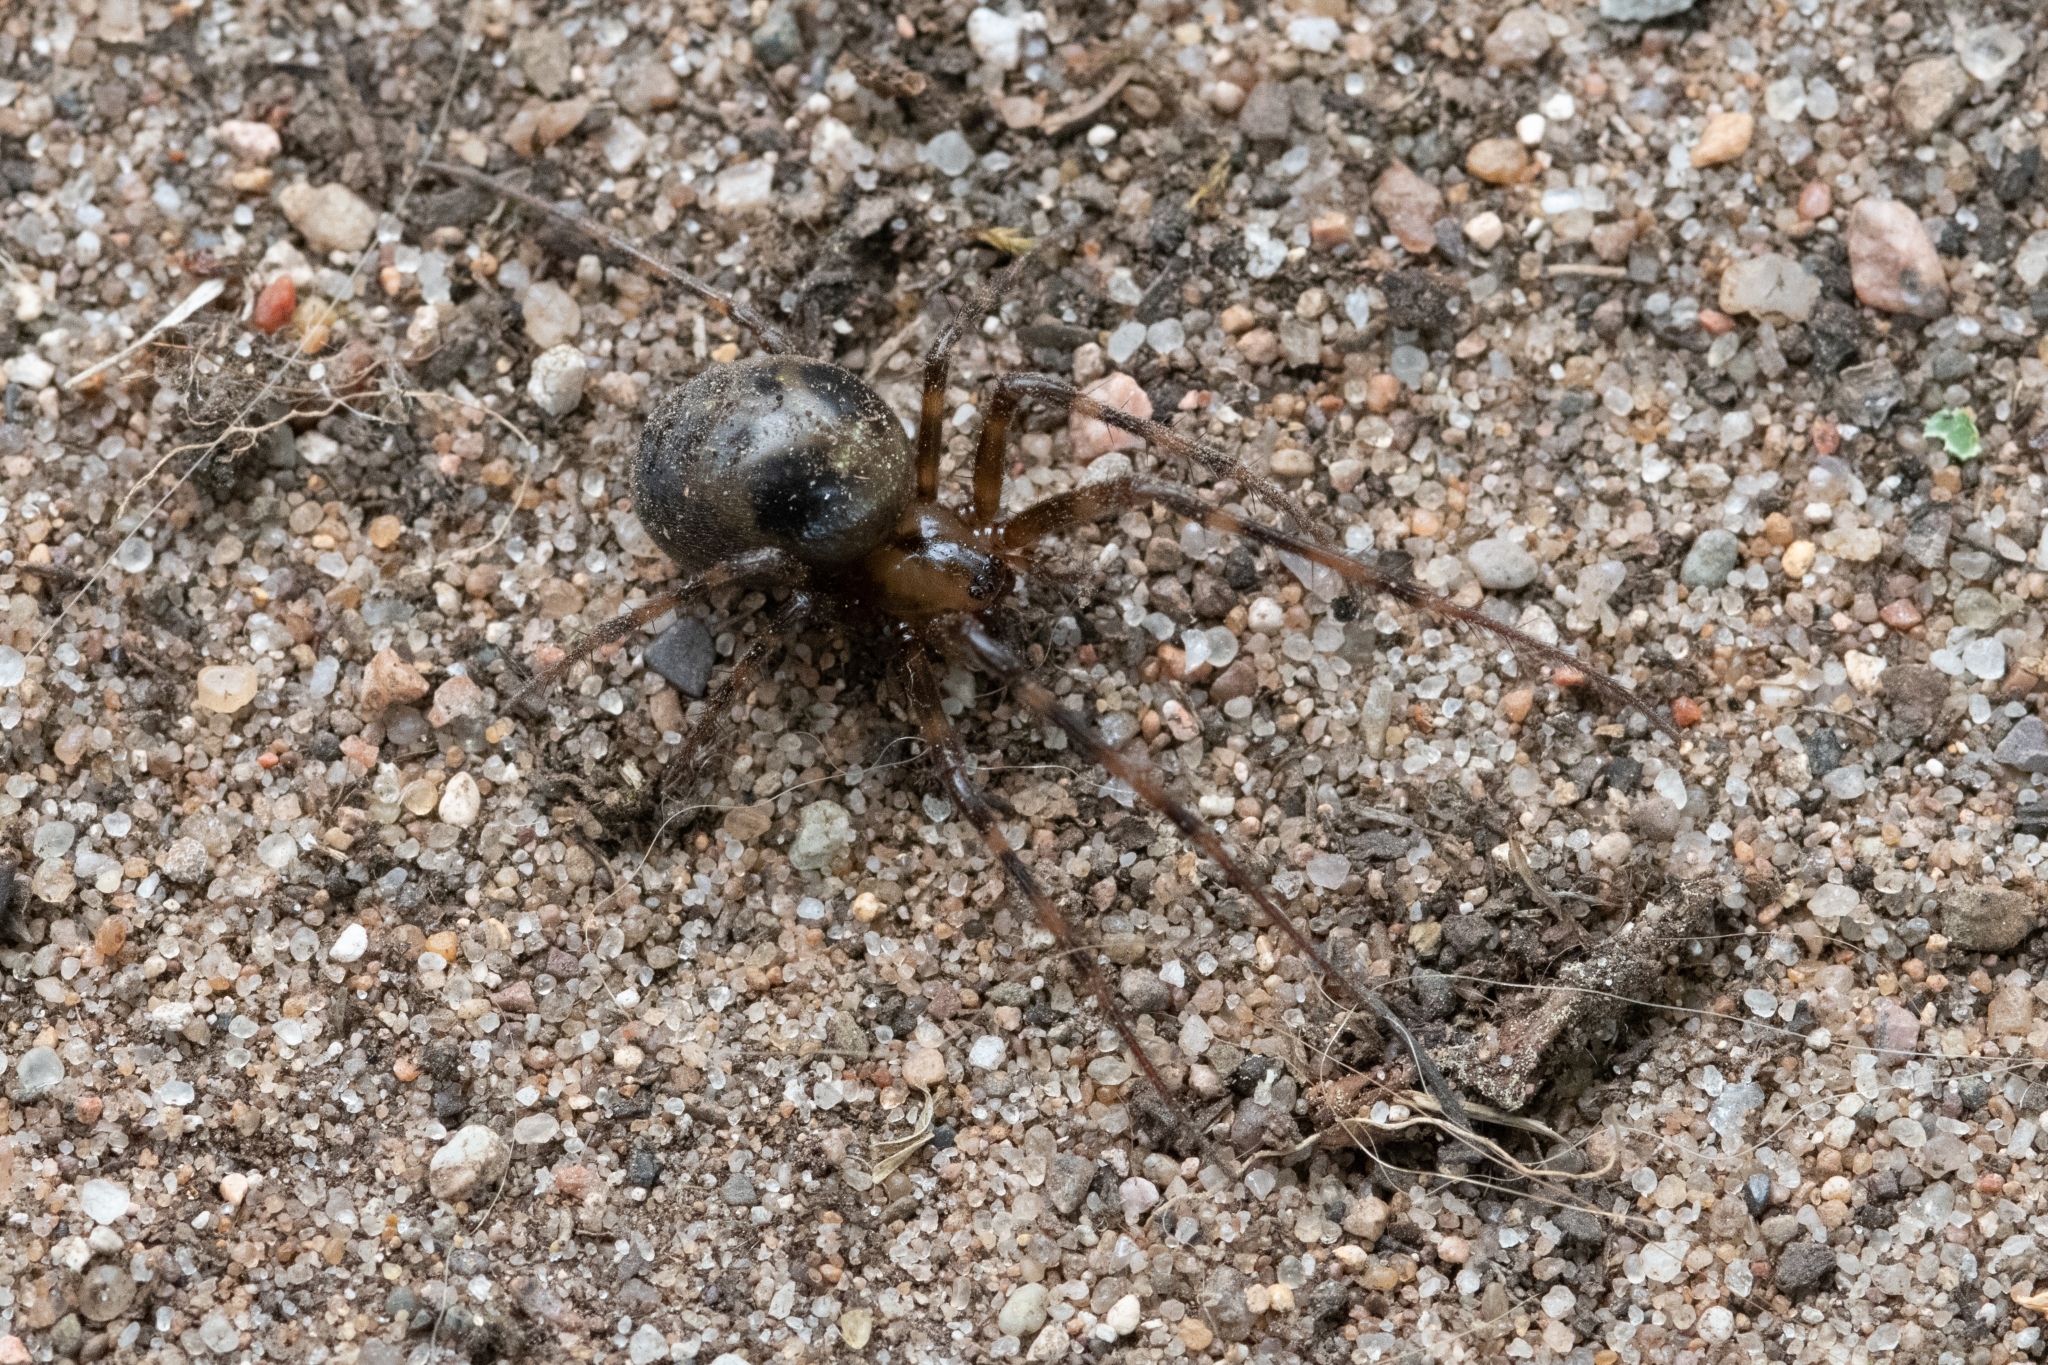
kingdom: Animalia
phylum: Arthropoda
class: Arachnida
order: Araneae
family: Tetragnathidae
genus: Meta
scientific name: Meta ovalis
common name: Eastern cave long-jawed spider
